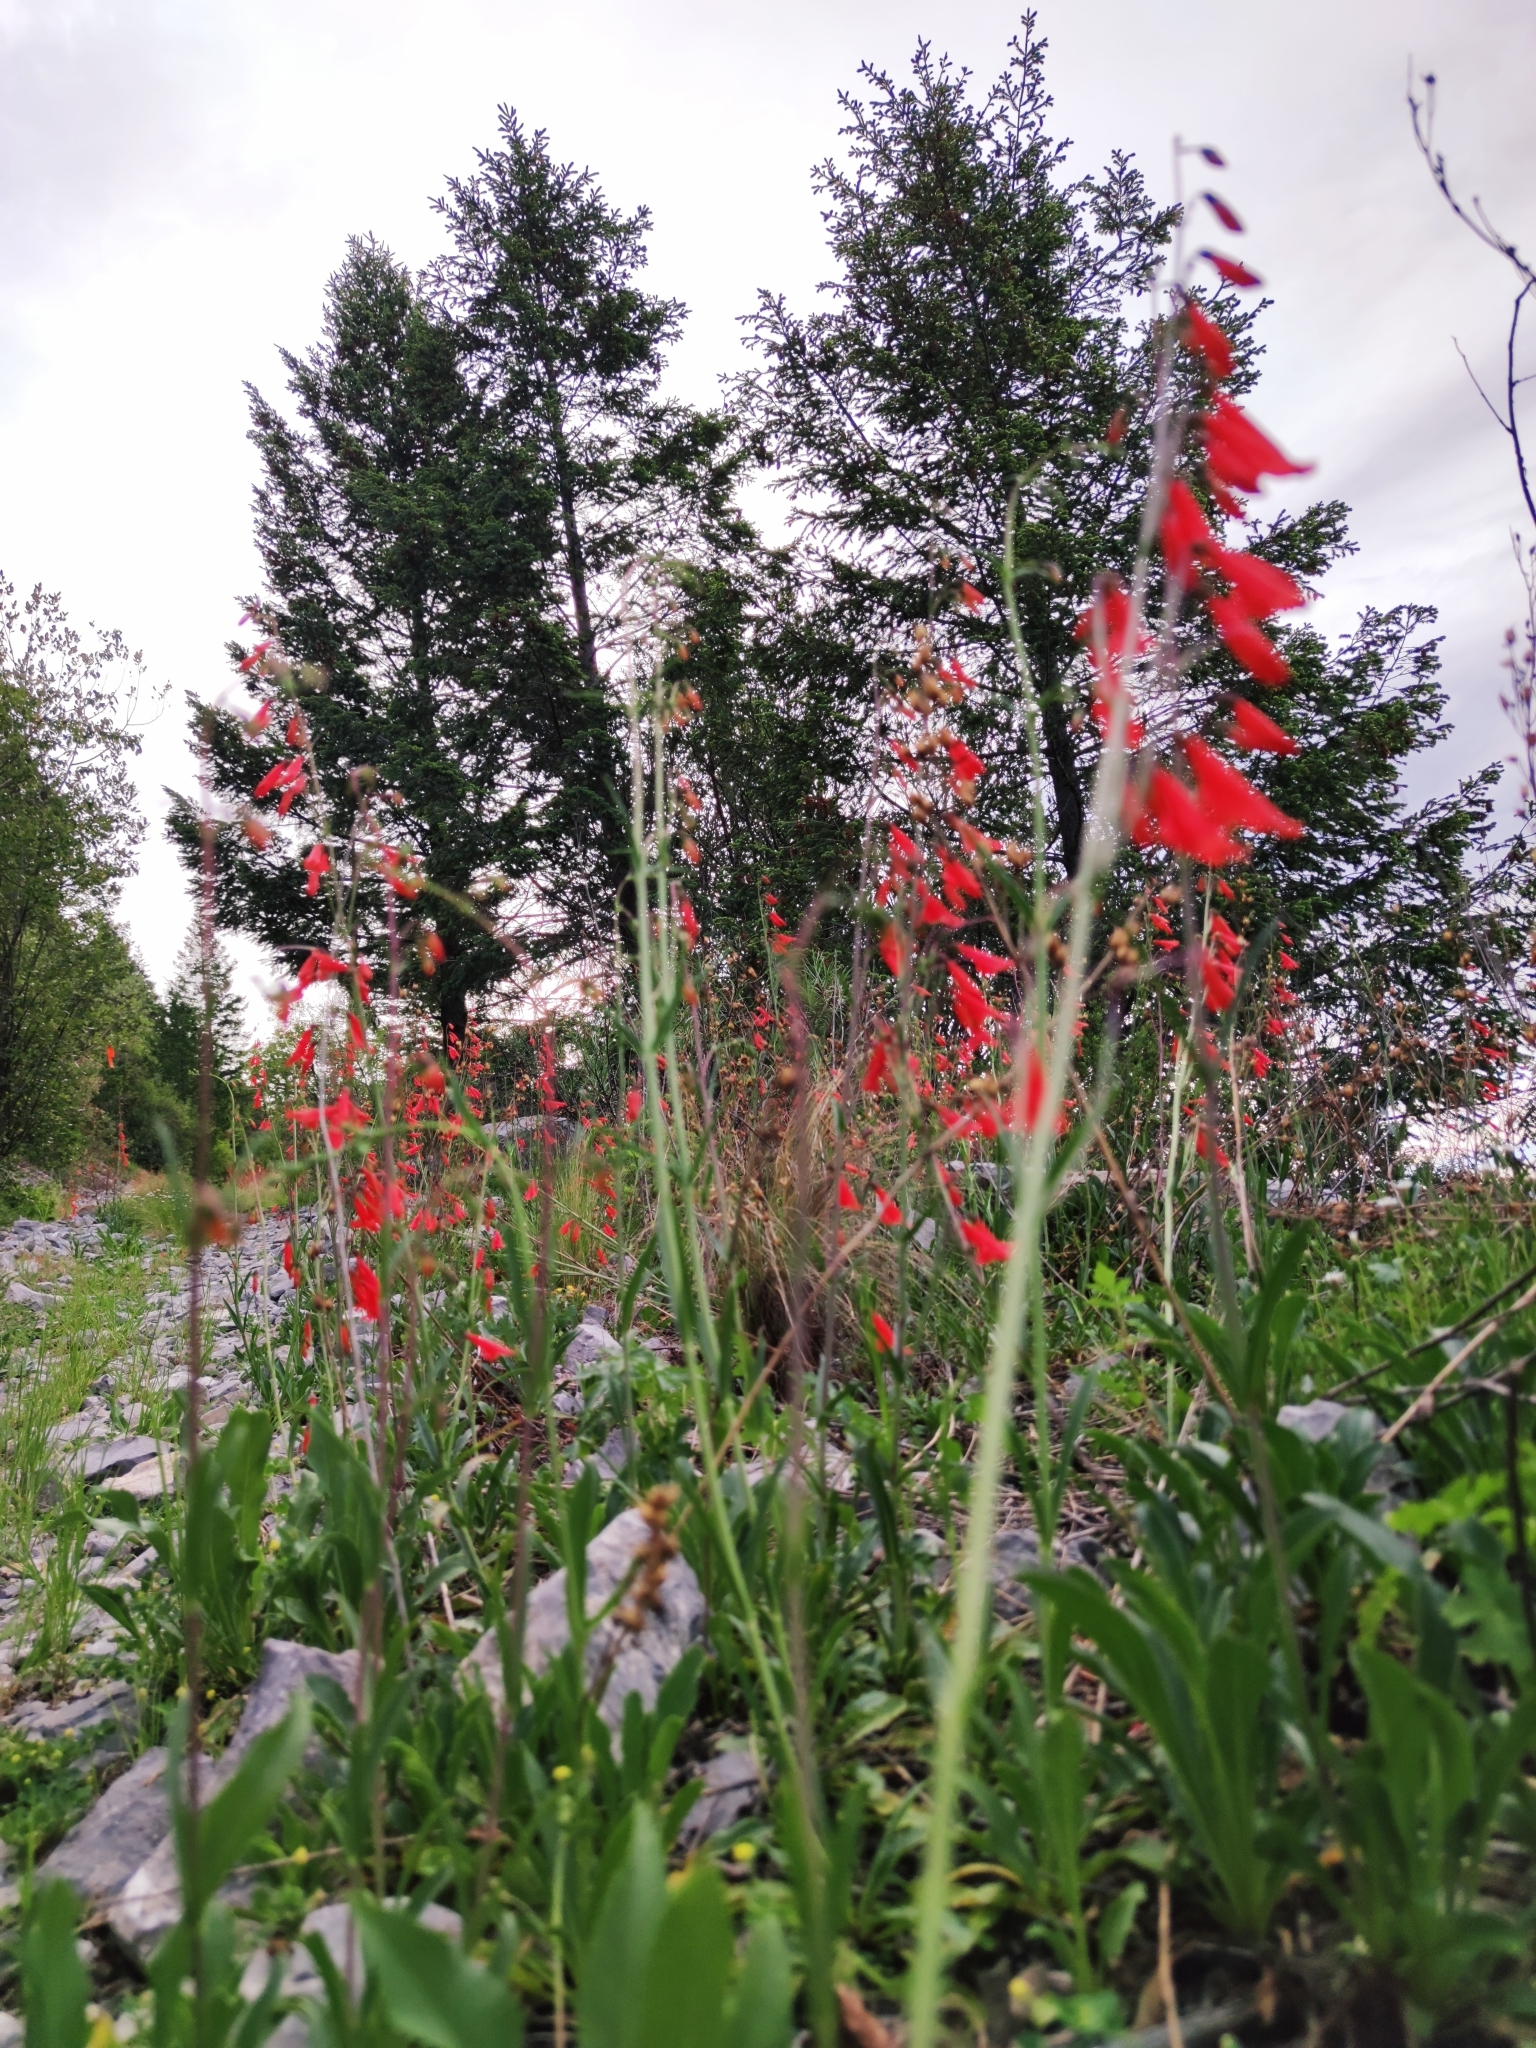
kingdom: Plantae
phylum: Tracheophyta
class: Magnoliopsida
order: Lamiales
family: Plantaginaceae
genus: Penstemon
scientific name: Penstemon barbatus
